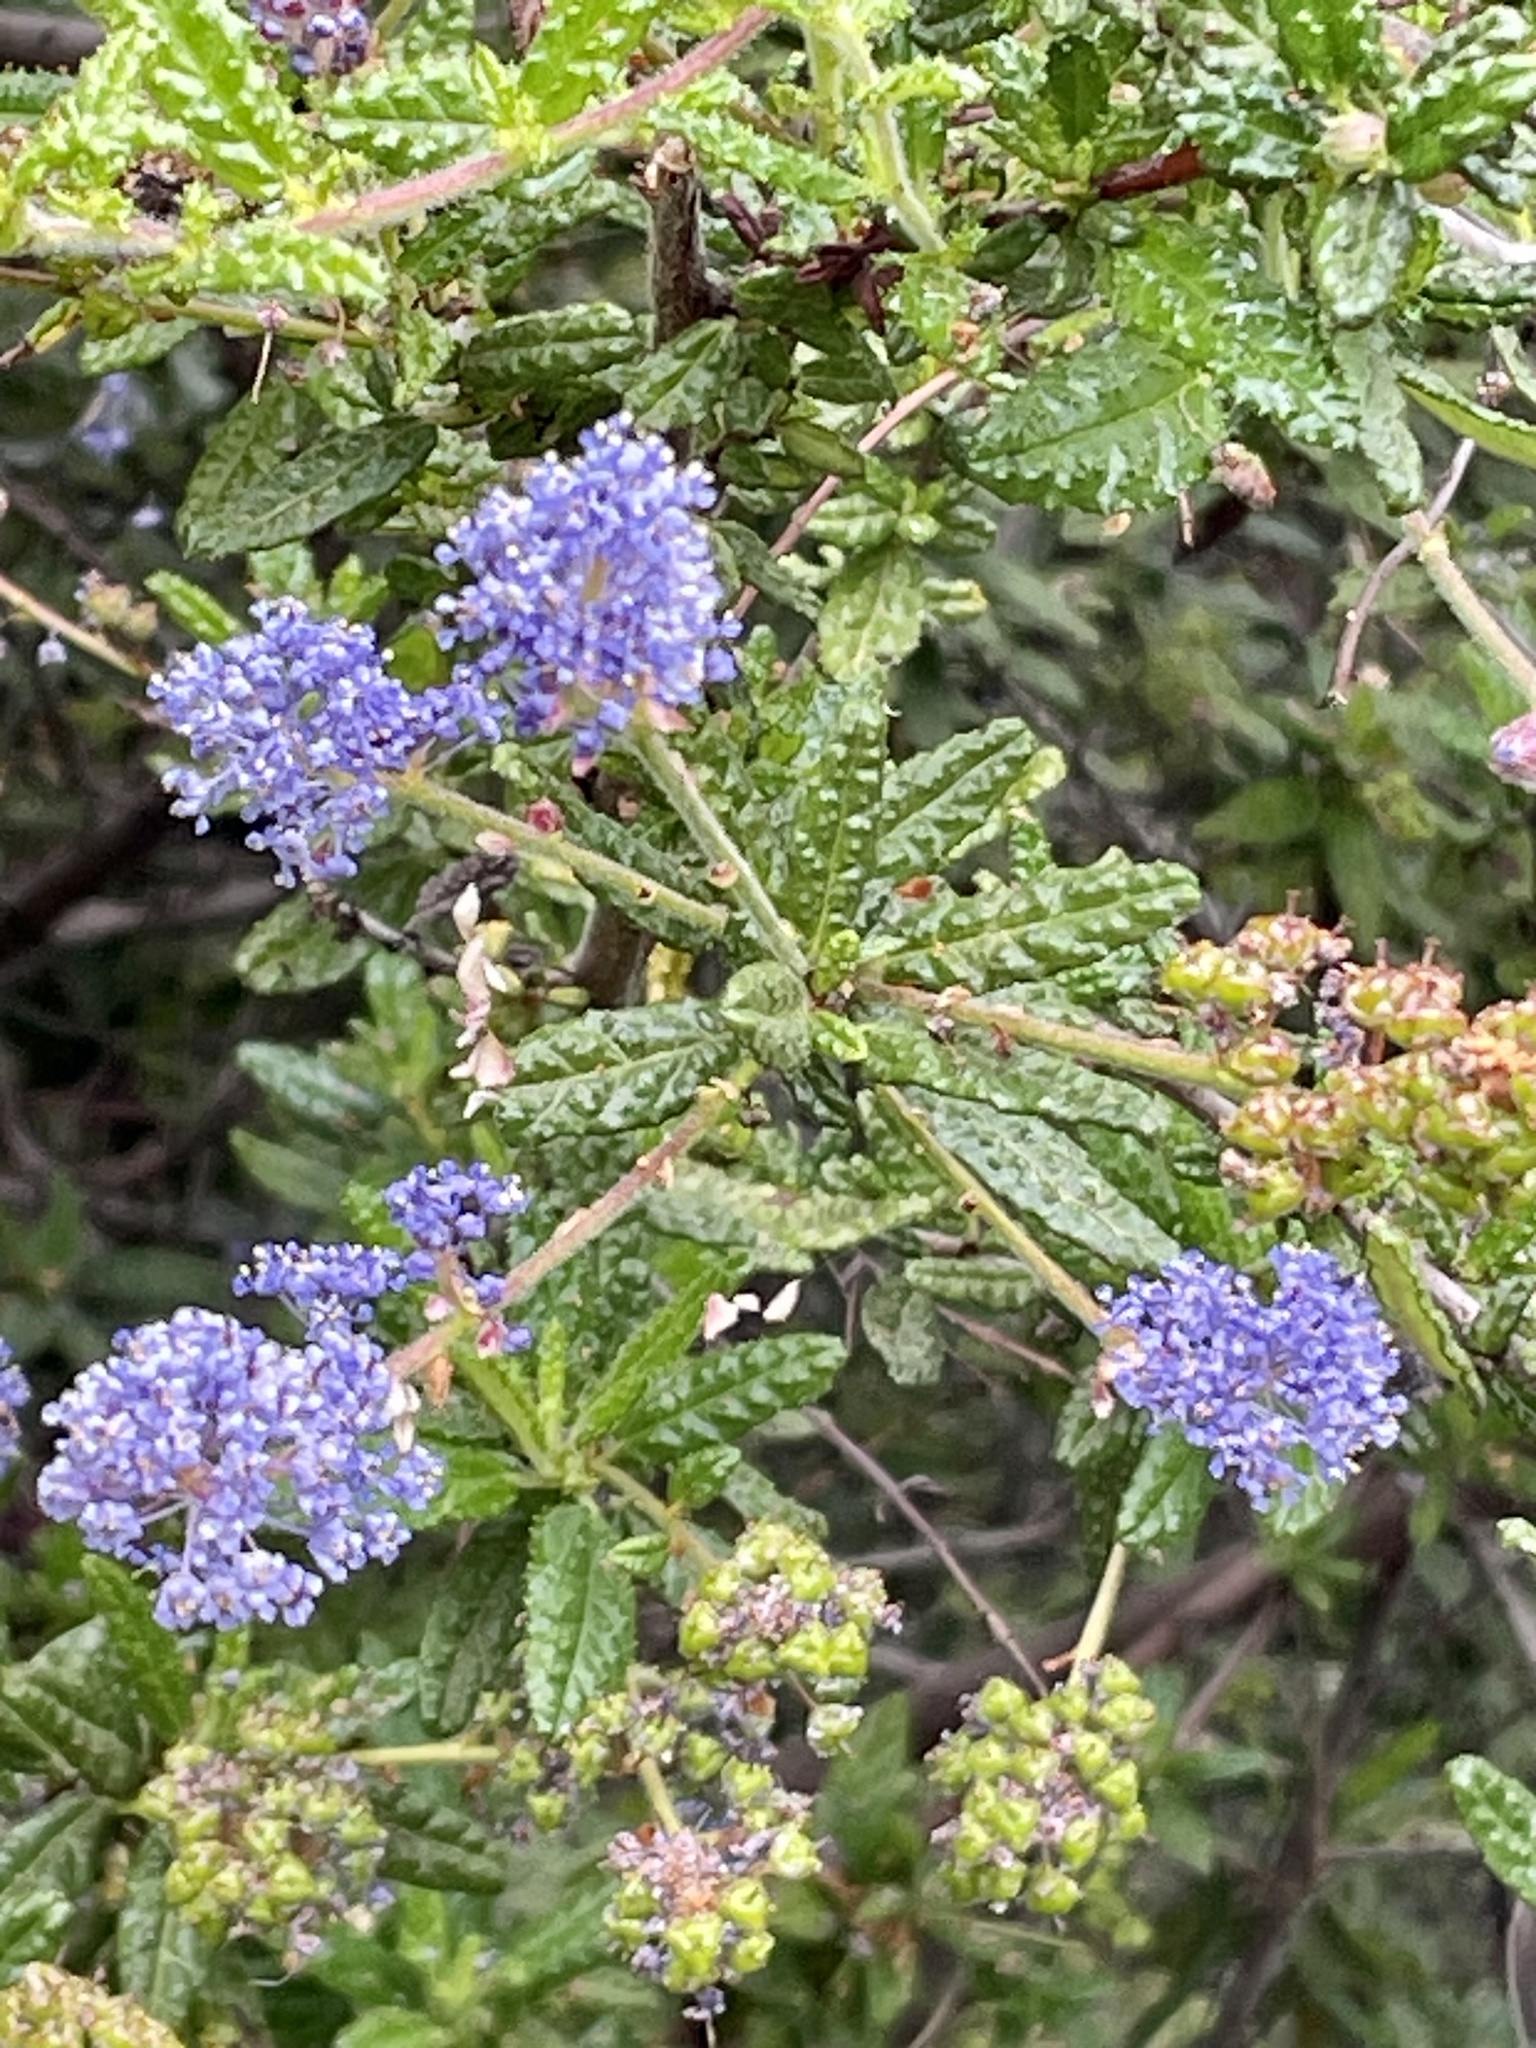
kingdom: Plantae
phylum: Tracheophyta
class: Magnoliopsida
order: Rosales
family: Rhamnaceae
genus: Ceanothus
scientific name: Ceanothus papillosus
